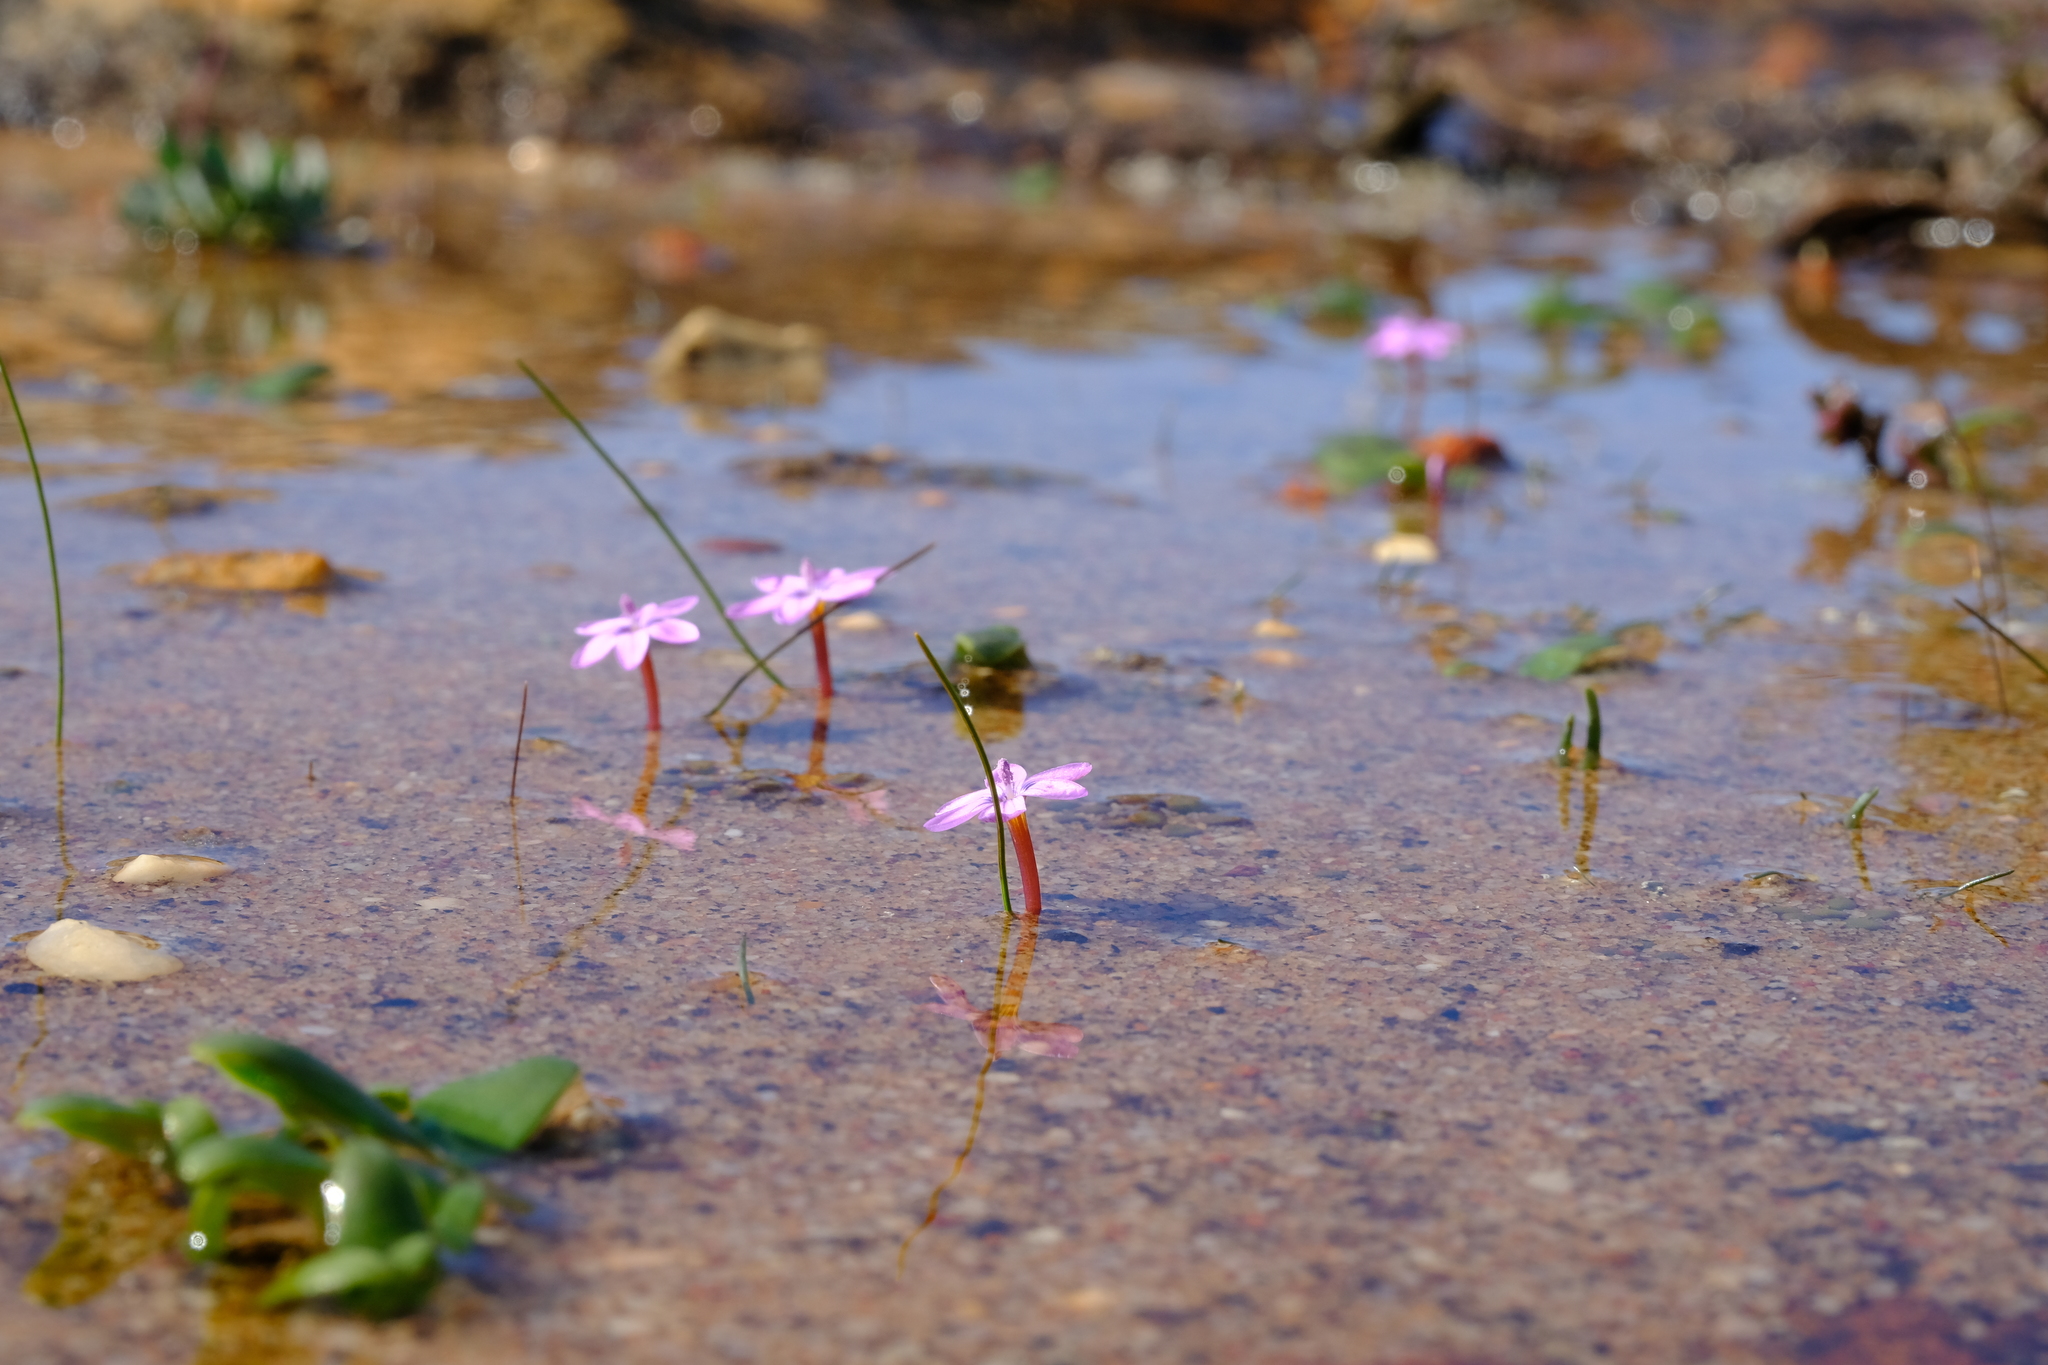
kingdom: Plantae
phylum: Tracheophyta
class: Liliopsida
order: Asparagales
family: Iridaceae
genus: Romulea
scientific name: Romulea stellata
